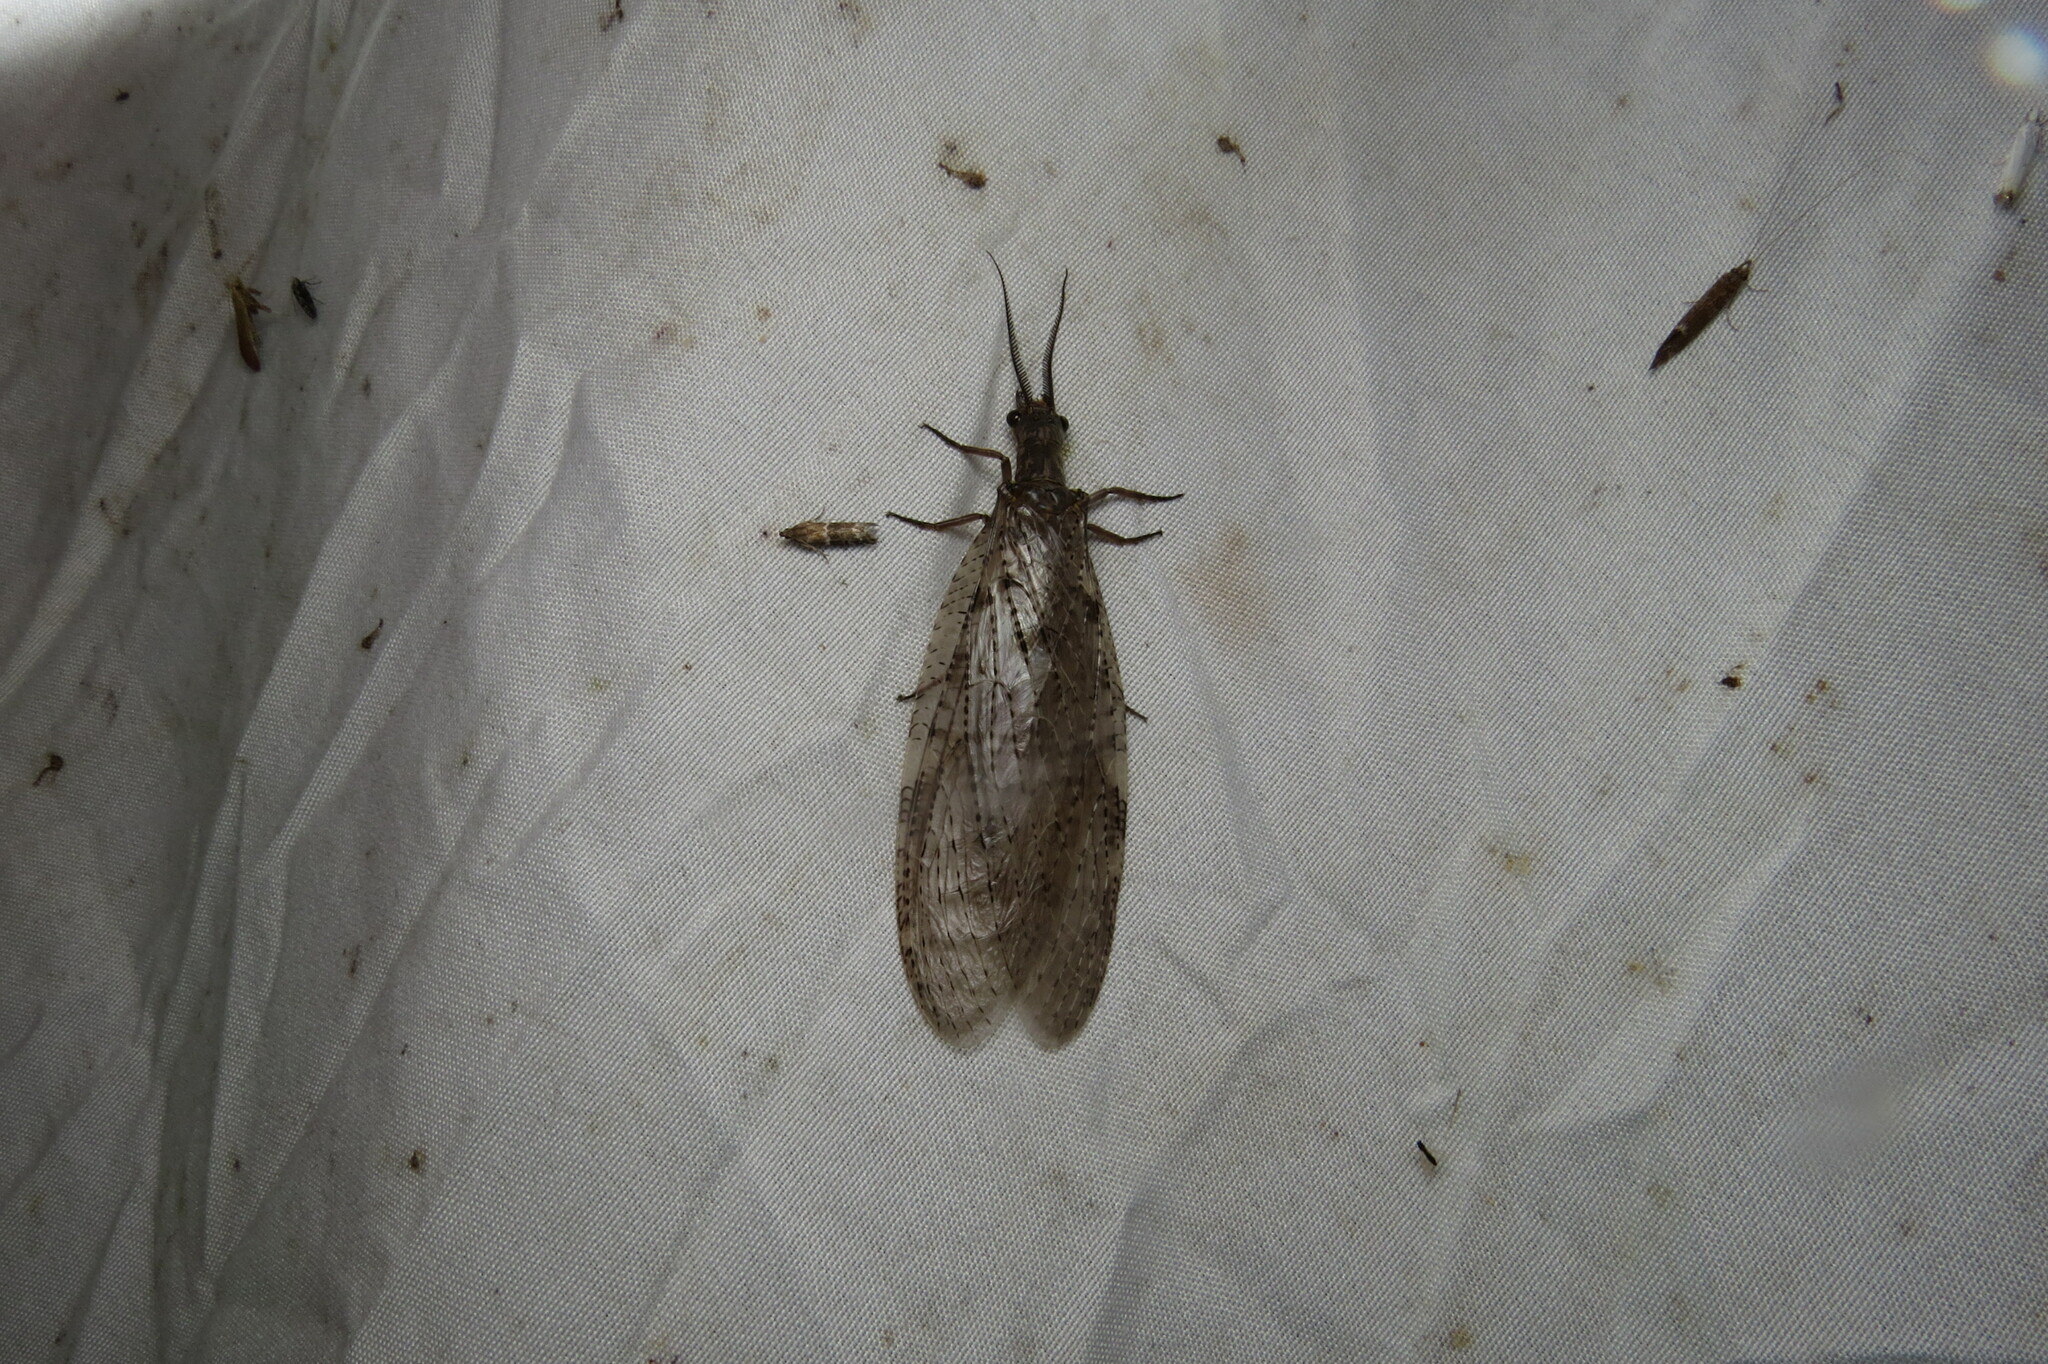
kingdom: Animalia
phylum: Arthropoda
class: Insecta
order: Megaloptera
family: Corydalidae
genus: Chauliodes
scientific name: Chauliodes pectinicornis
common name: Summer fishfly
